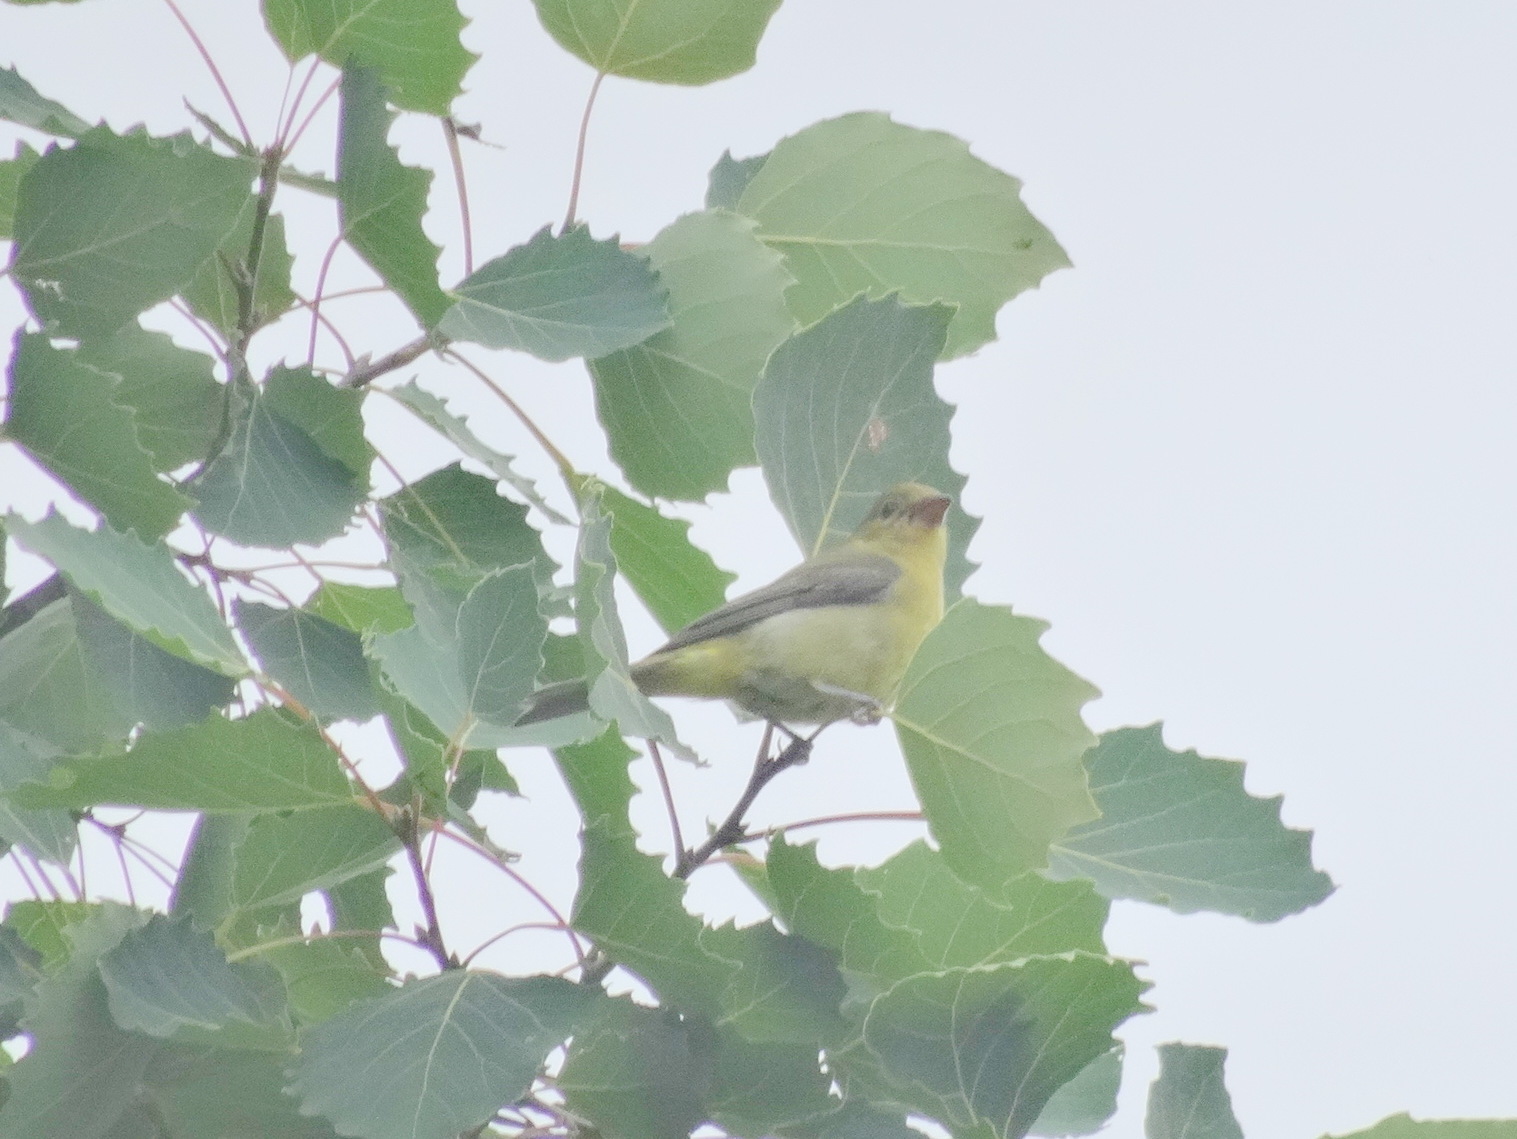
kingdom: Animalia
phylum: Chordata
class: Aves
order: Passeriformes
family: Cardinalidae
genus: Piranga
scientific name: Piranga olivacea
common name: Scarlet tanager
